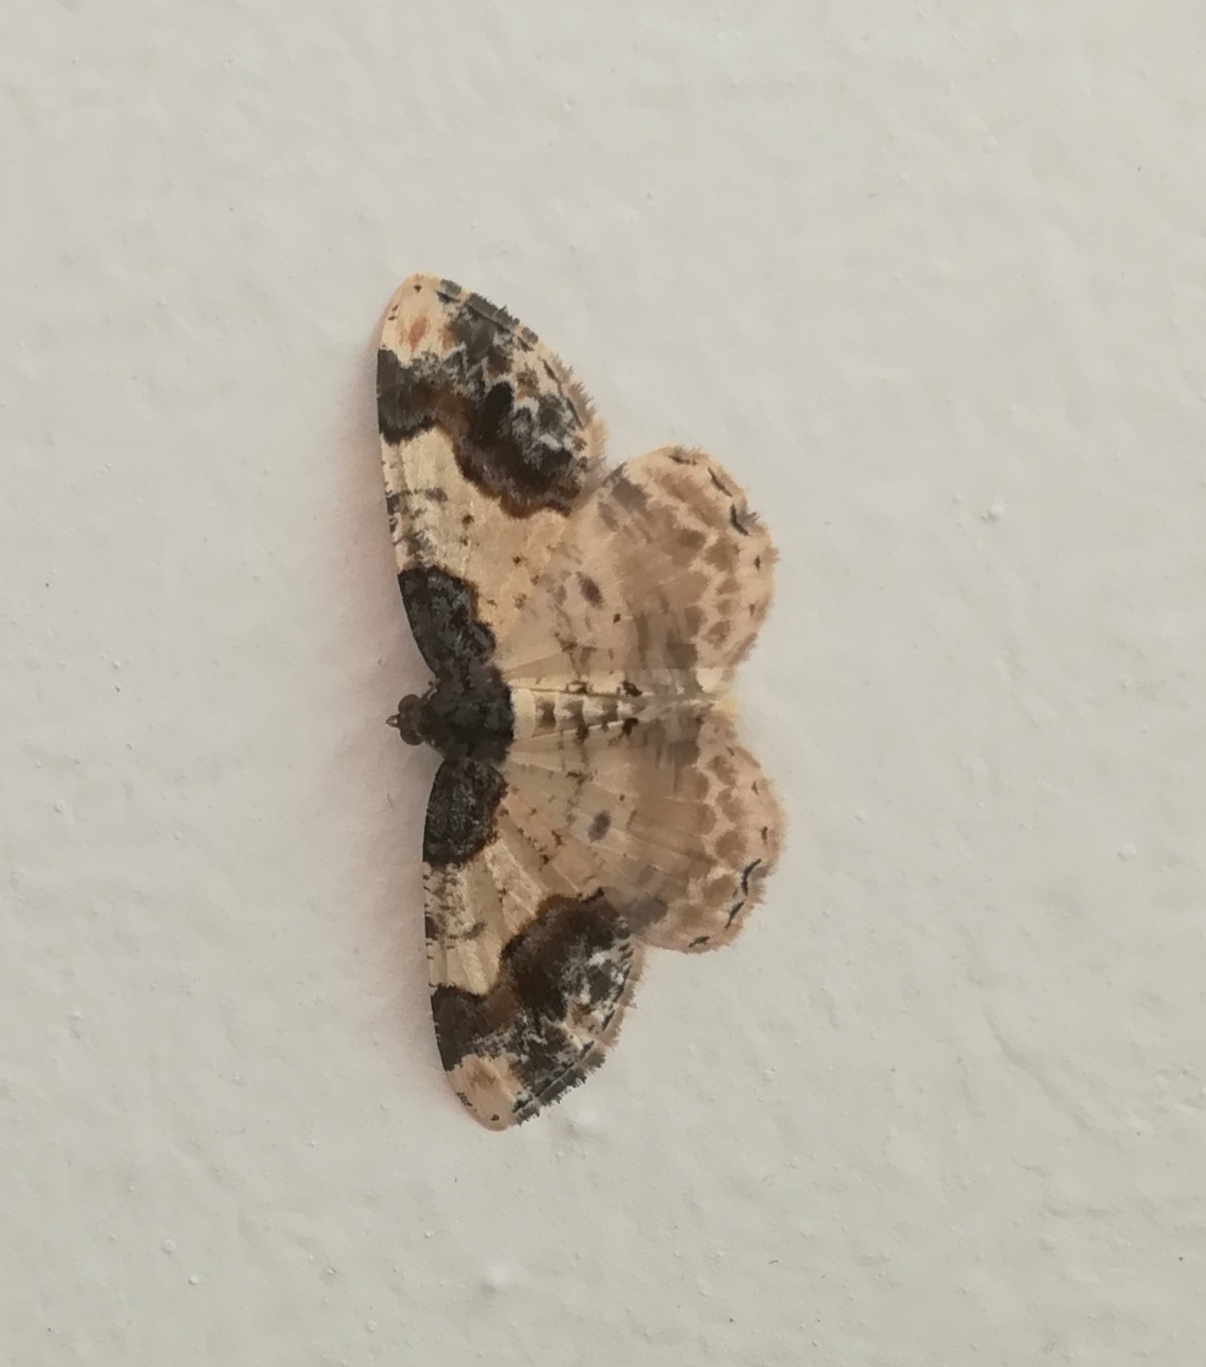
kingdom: Animalia
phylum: Arthropoda
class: Insecta
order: Lepidoptera
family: Geometridae
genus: Ligdia
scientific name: Ligdia adustata
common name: Scorched carpet
